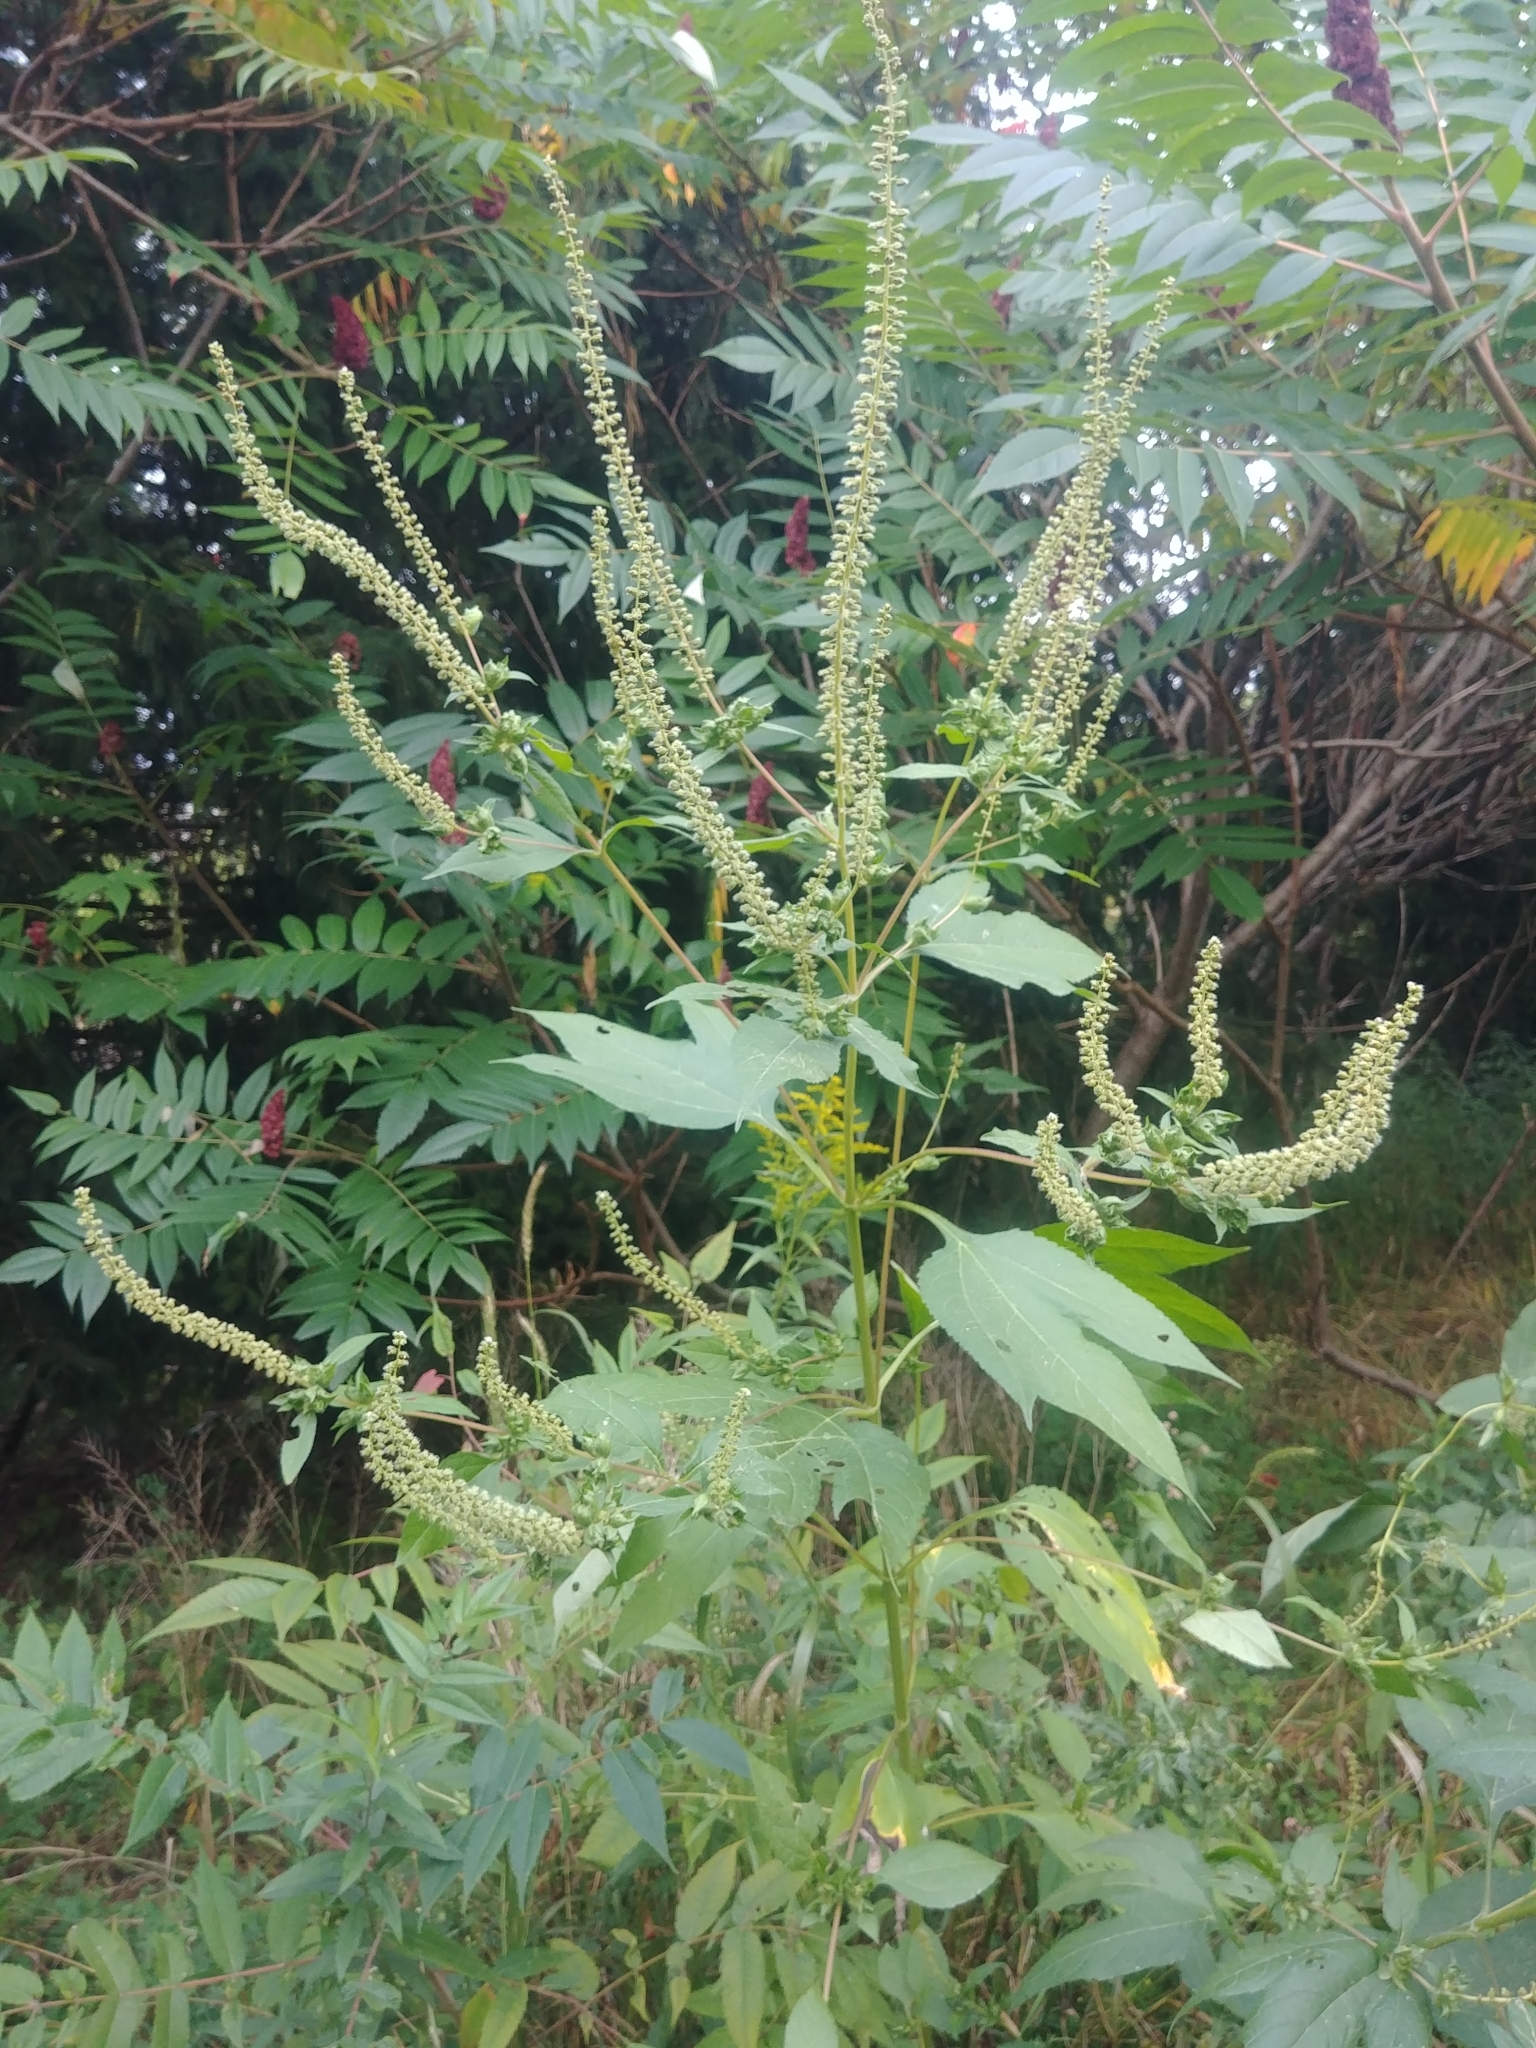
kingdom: Plantae
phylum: Tracheophyta
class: Magnoliopsida
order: Asterales
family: Asteraceae
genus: Ambrosia
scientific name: Ambrosia trifida
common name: Giant ragweed
